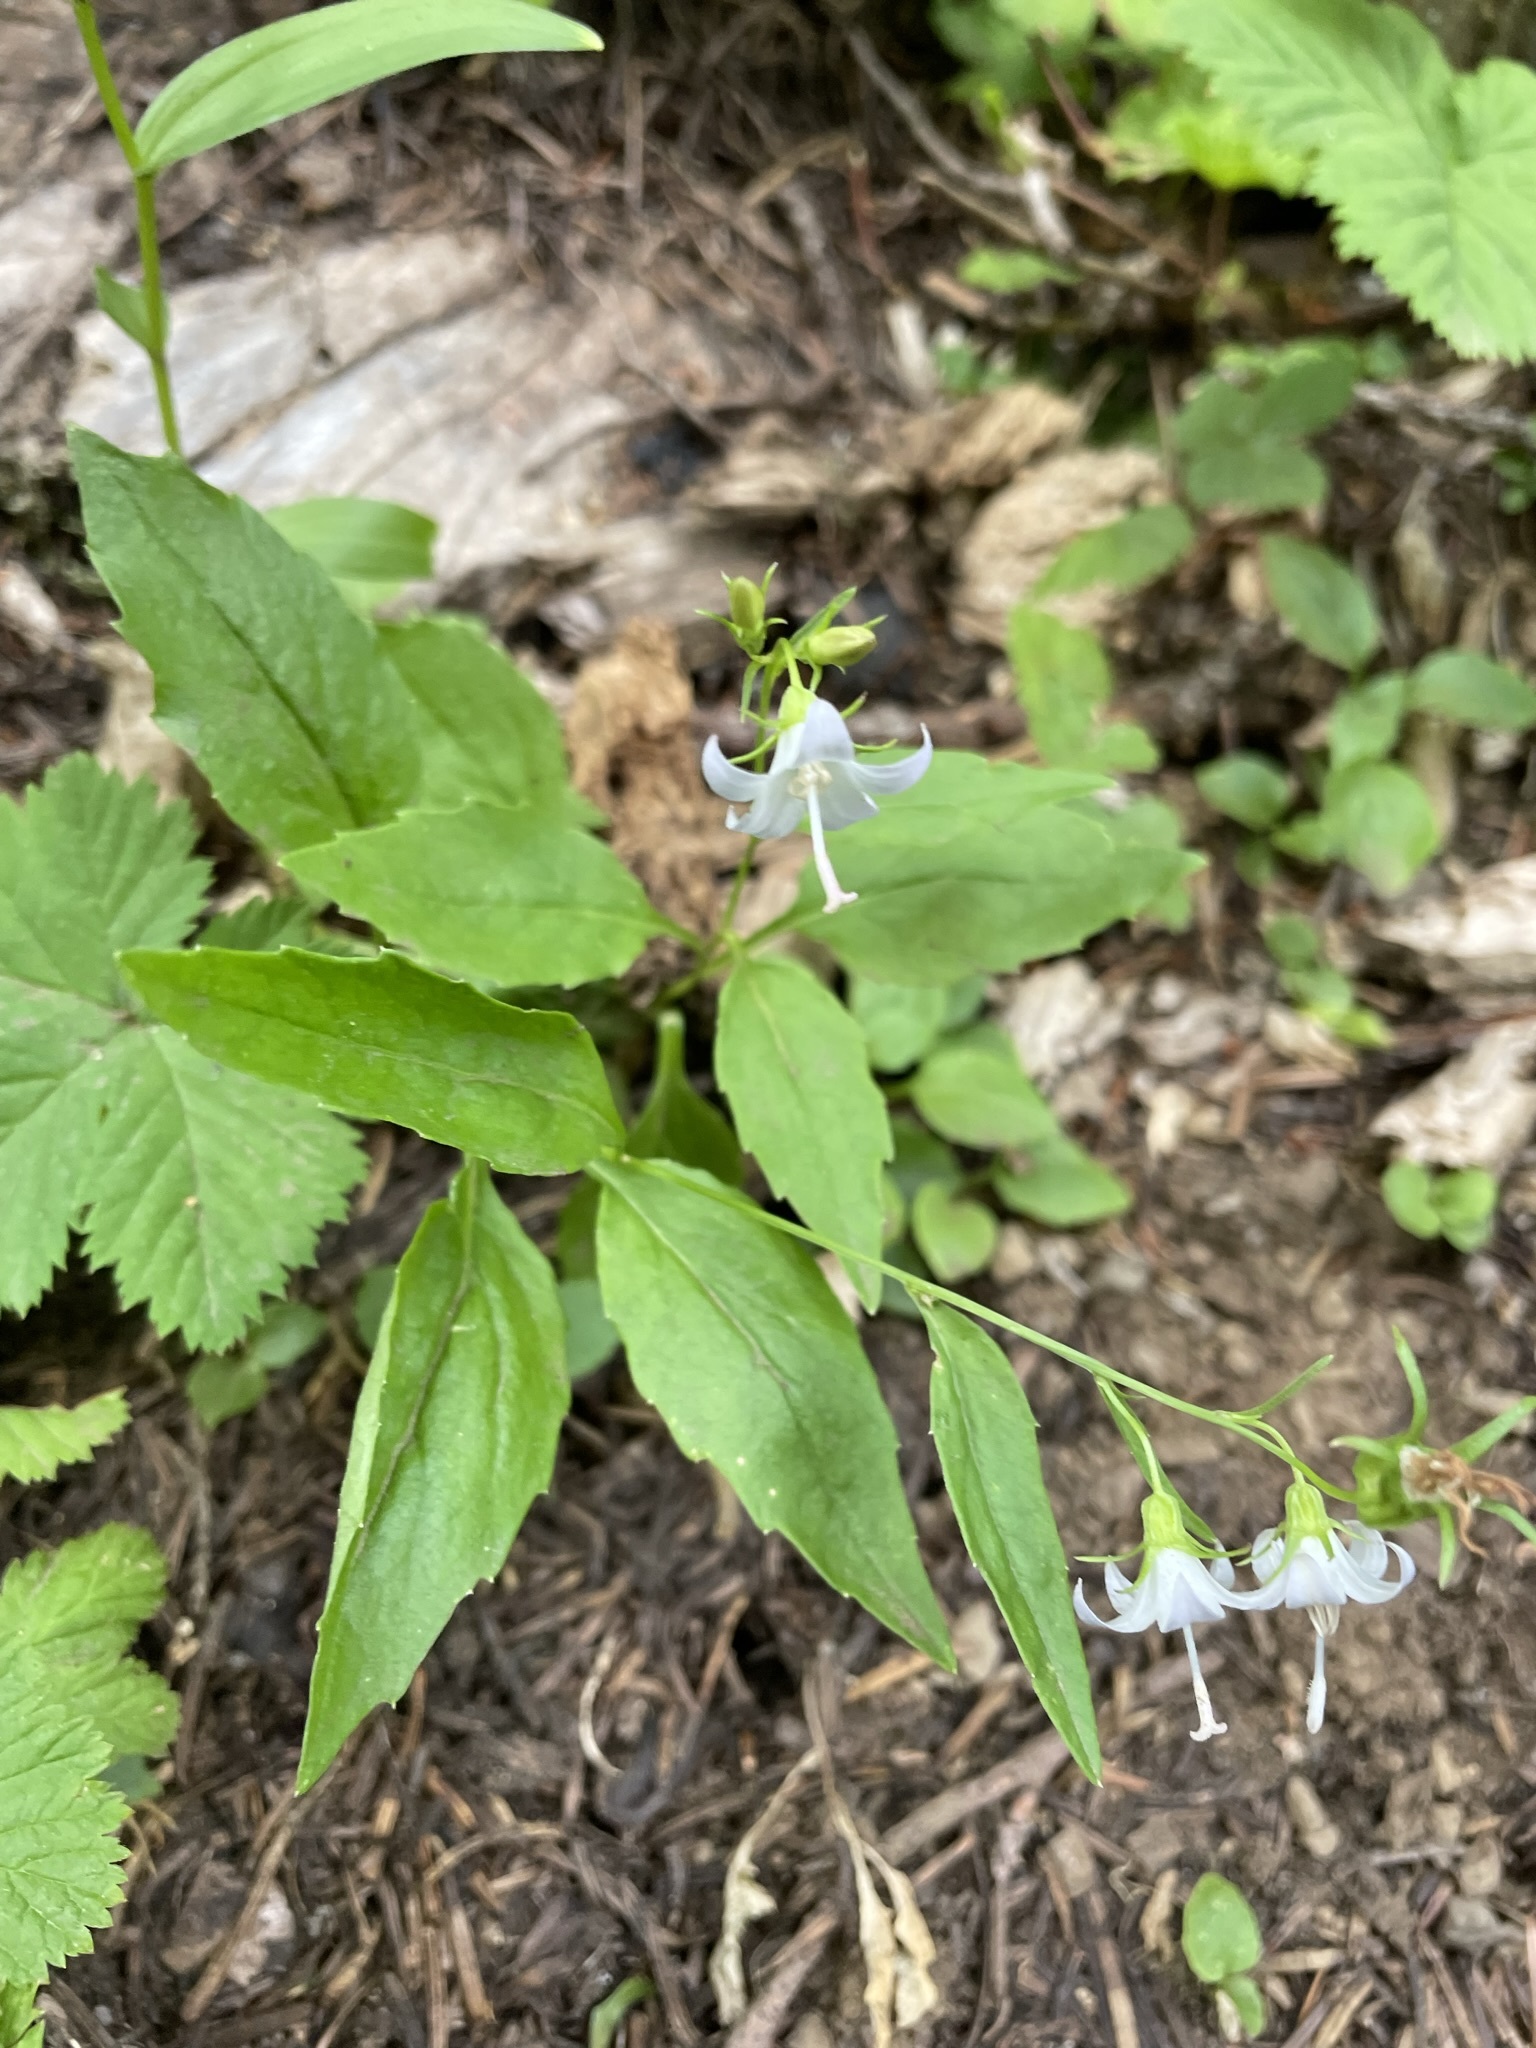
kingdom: Plantae
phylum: Tracheophyta
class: Magnoliopsida
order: Asterales
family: Campanulaceae
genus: Campanula
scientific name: Campanula scouleri
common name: Scouler's harebell
